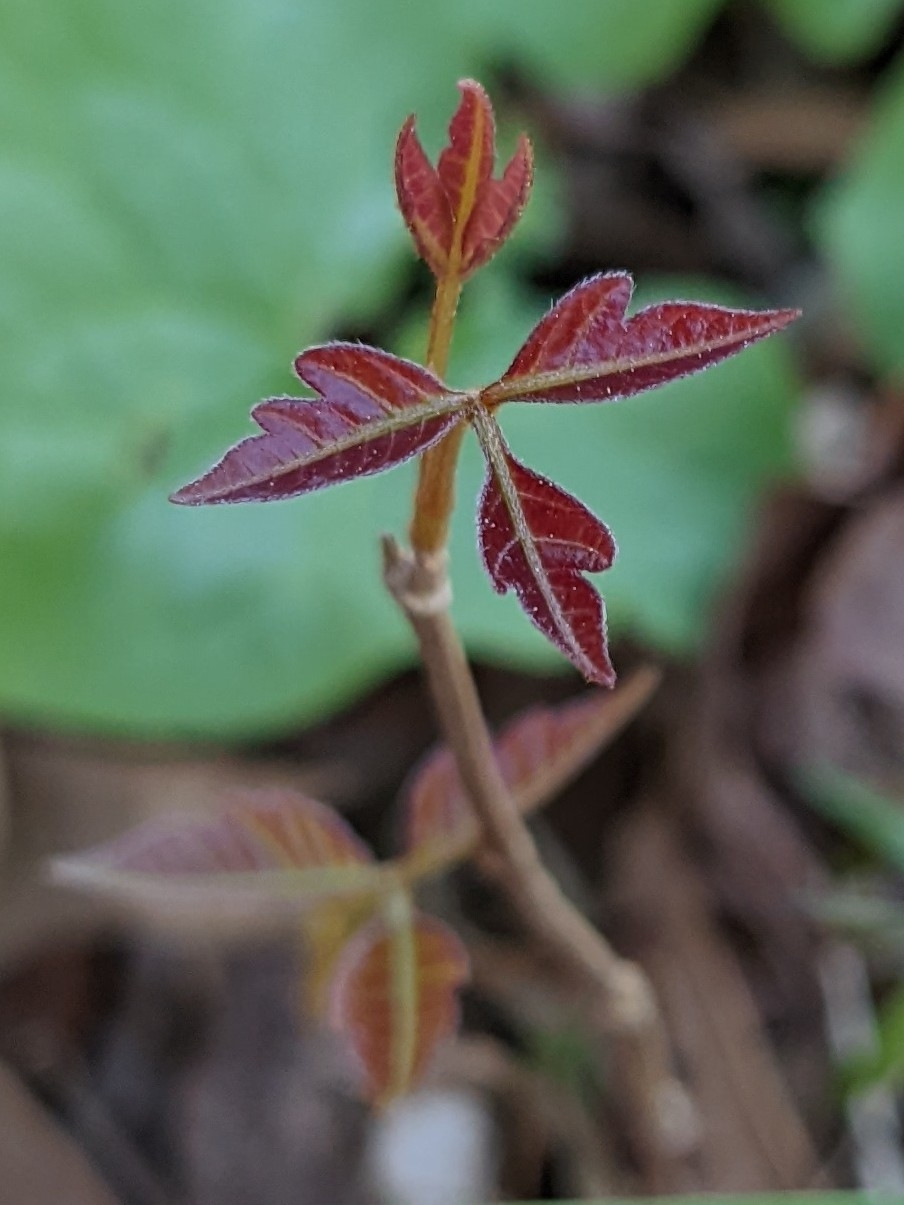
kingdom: Plantae
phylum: Tracheophyta
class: Magnoliopsida
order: Sapindales
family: Anacardiaceae
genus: Toxicodendron
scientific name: Toxicodendron radicans
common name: Poison ivy
